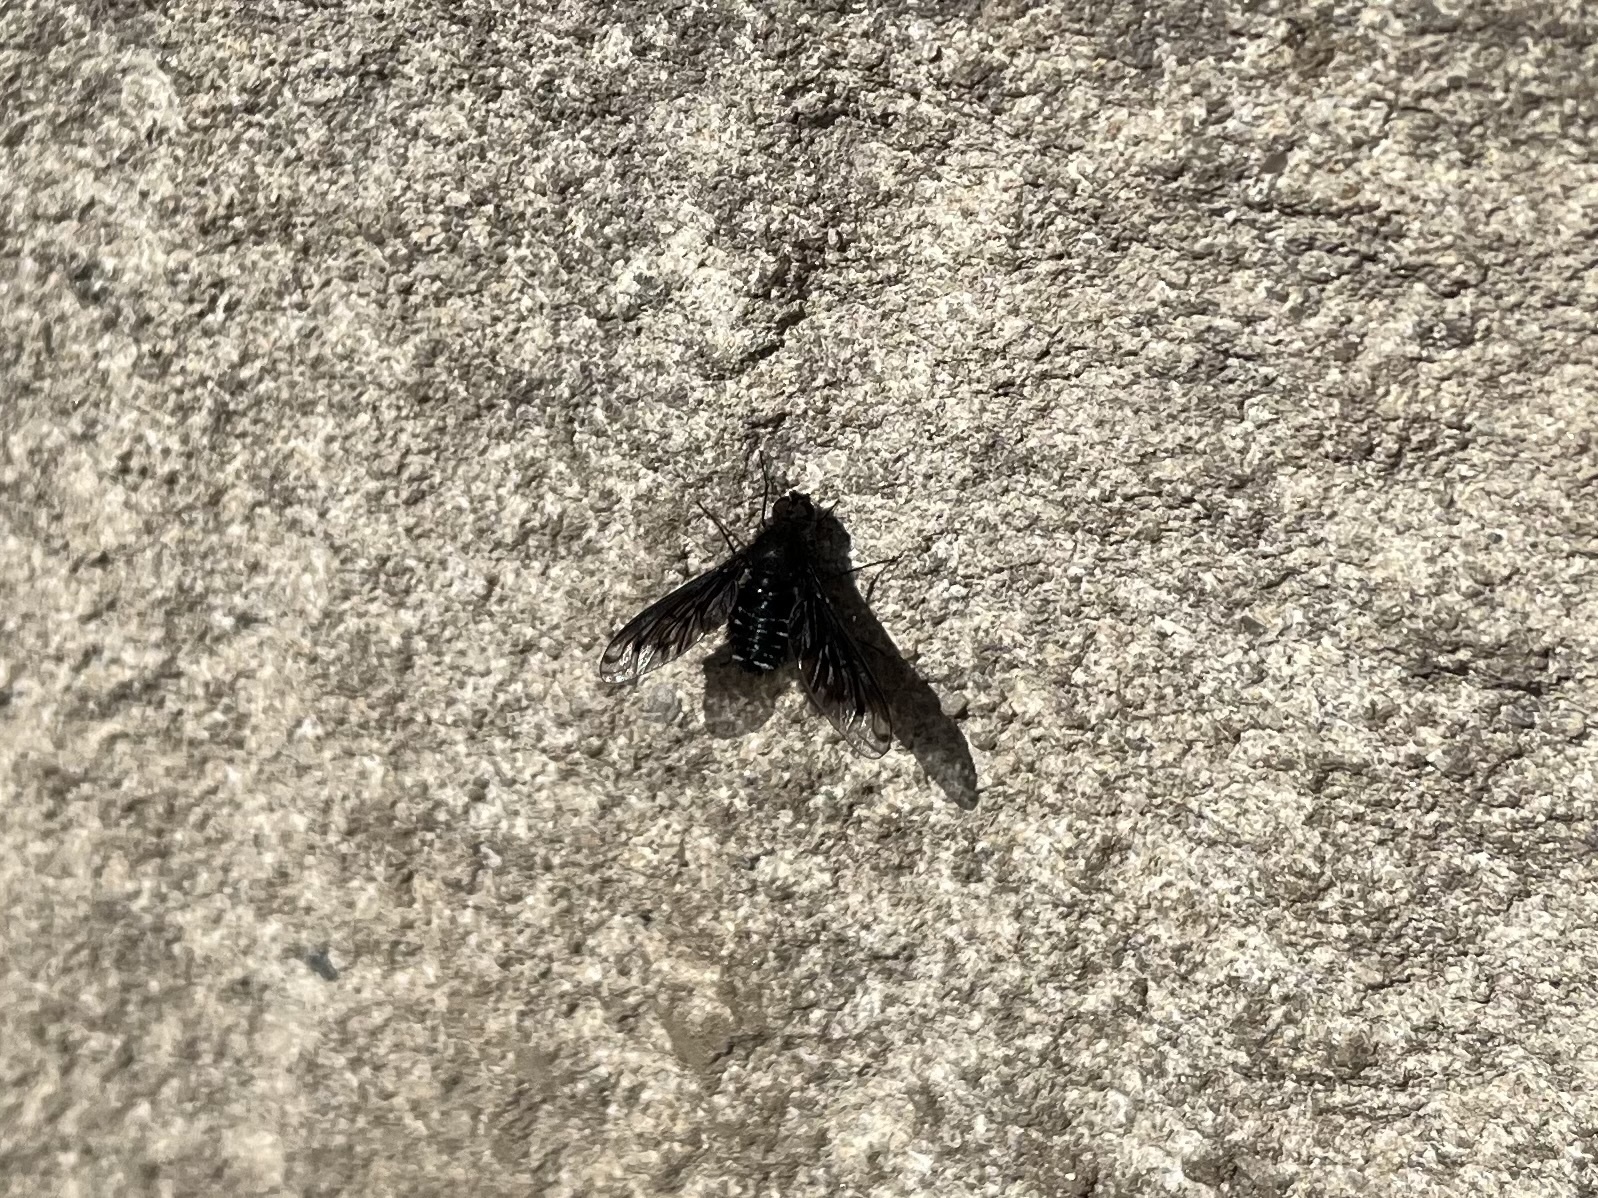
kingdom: Animalia
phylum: Arthropoda
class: Insecta
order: Diptera
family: Bombyliidae
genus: Anthrax
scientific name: Anthrax anthrax
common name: Anthracite bee-fly
